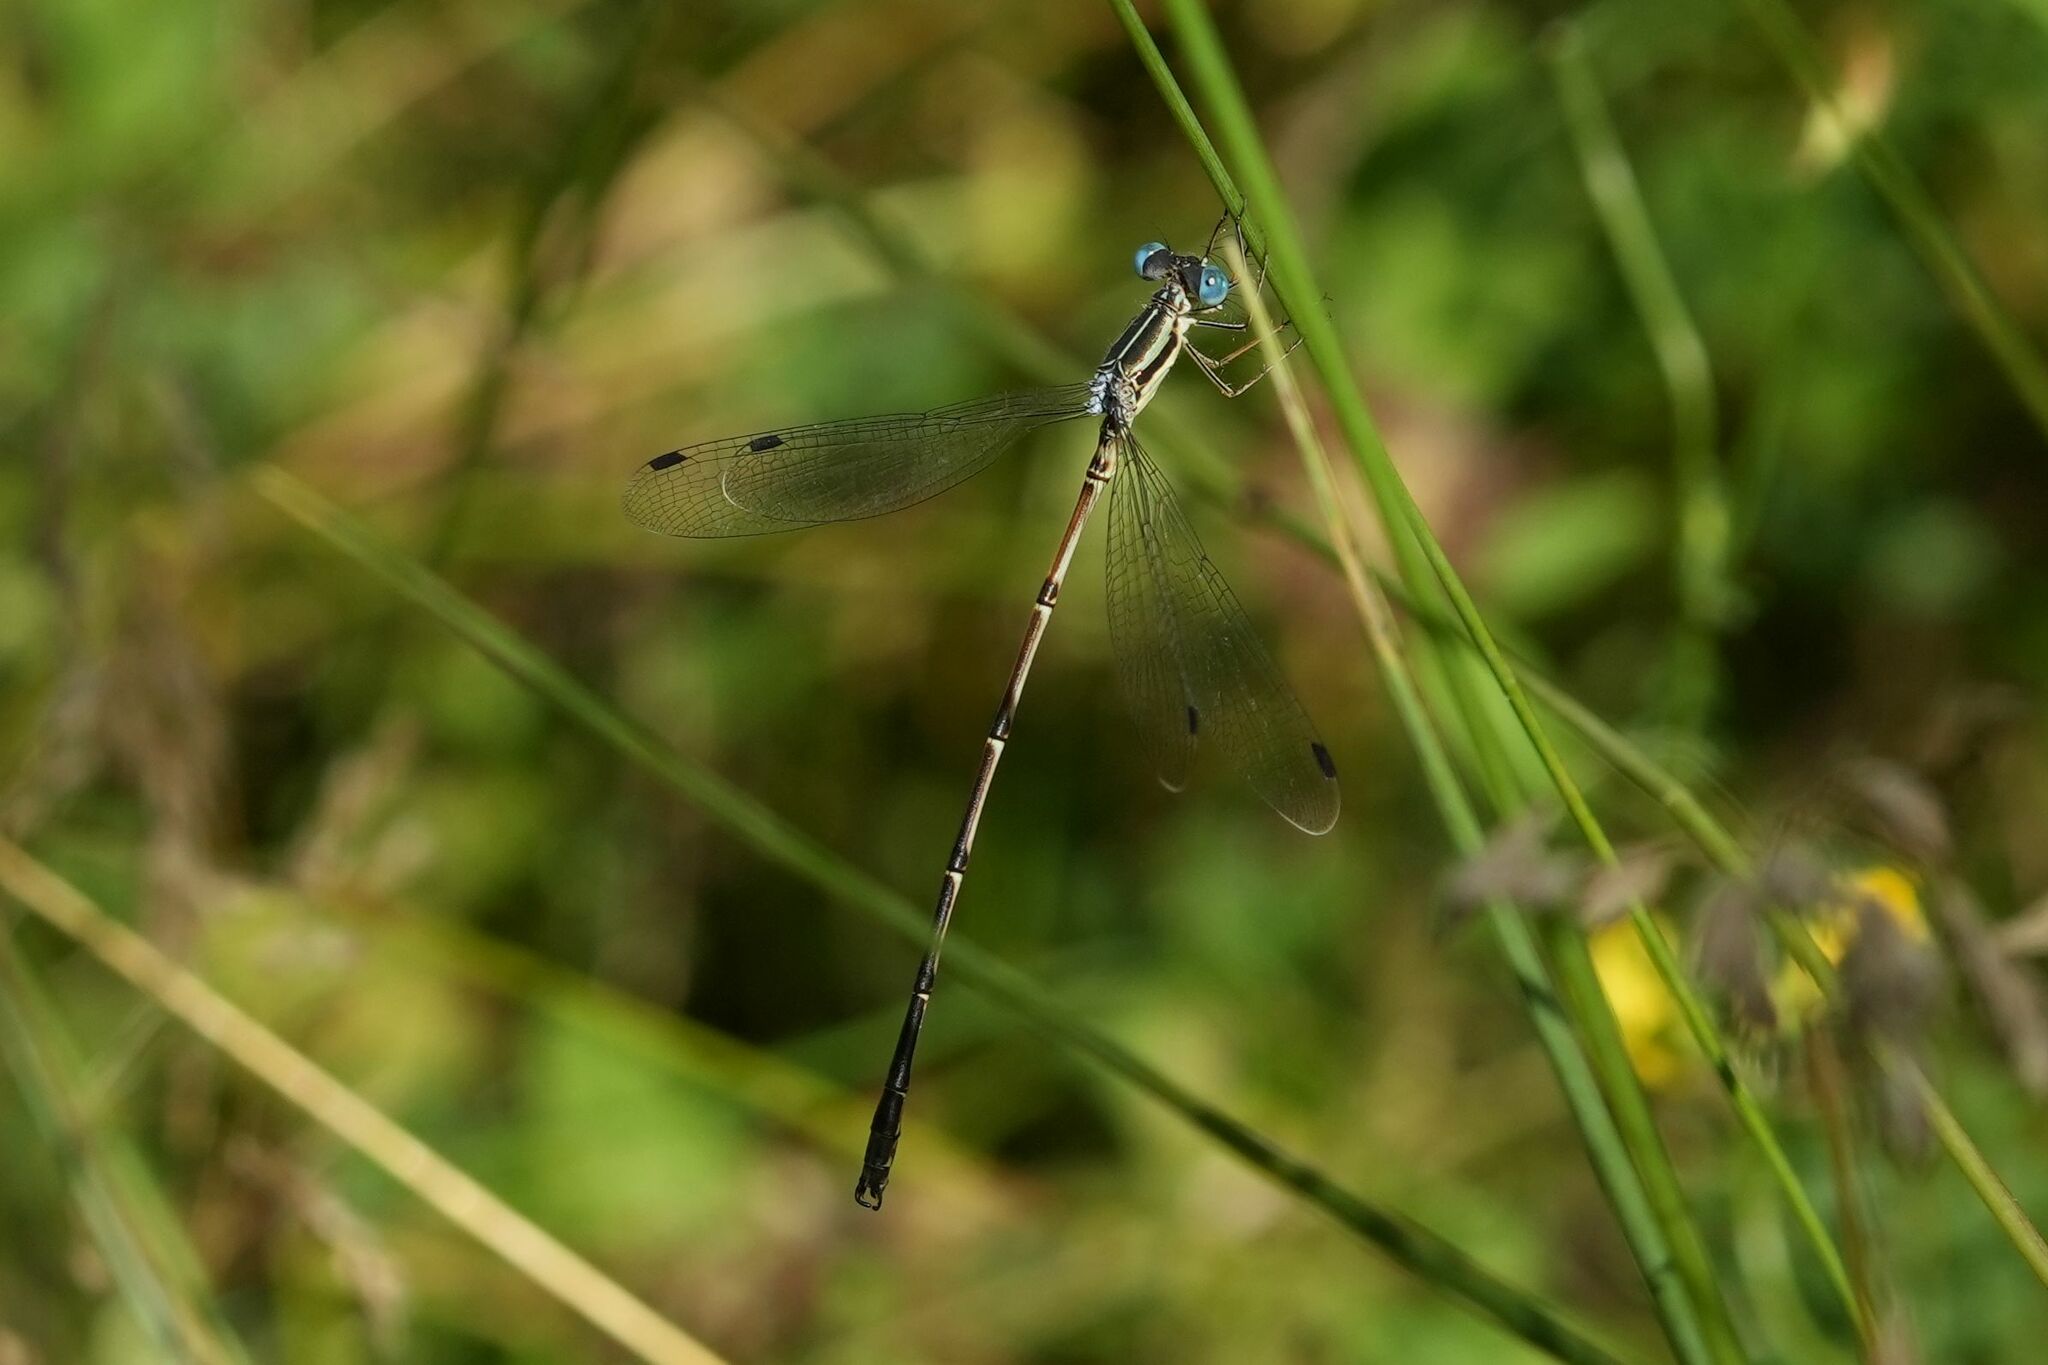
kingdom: Animalia
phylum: Arthropoda
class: Insecta
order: Odonata
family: Lestidae
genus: Lestes
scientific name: Lestes rectangularis
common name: Slender spreadwing
